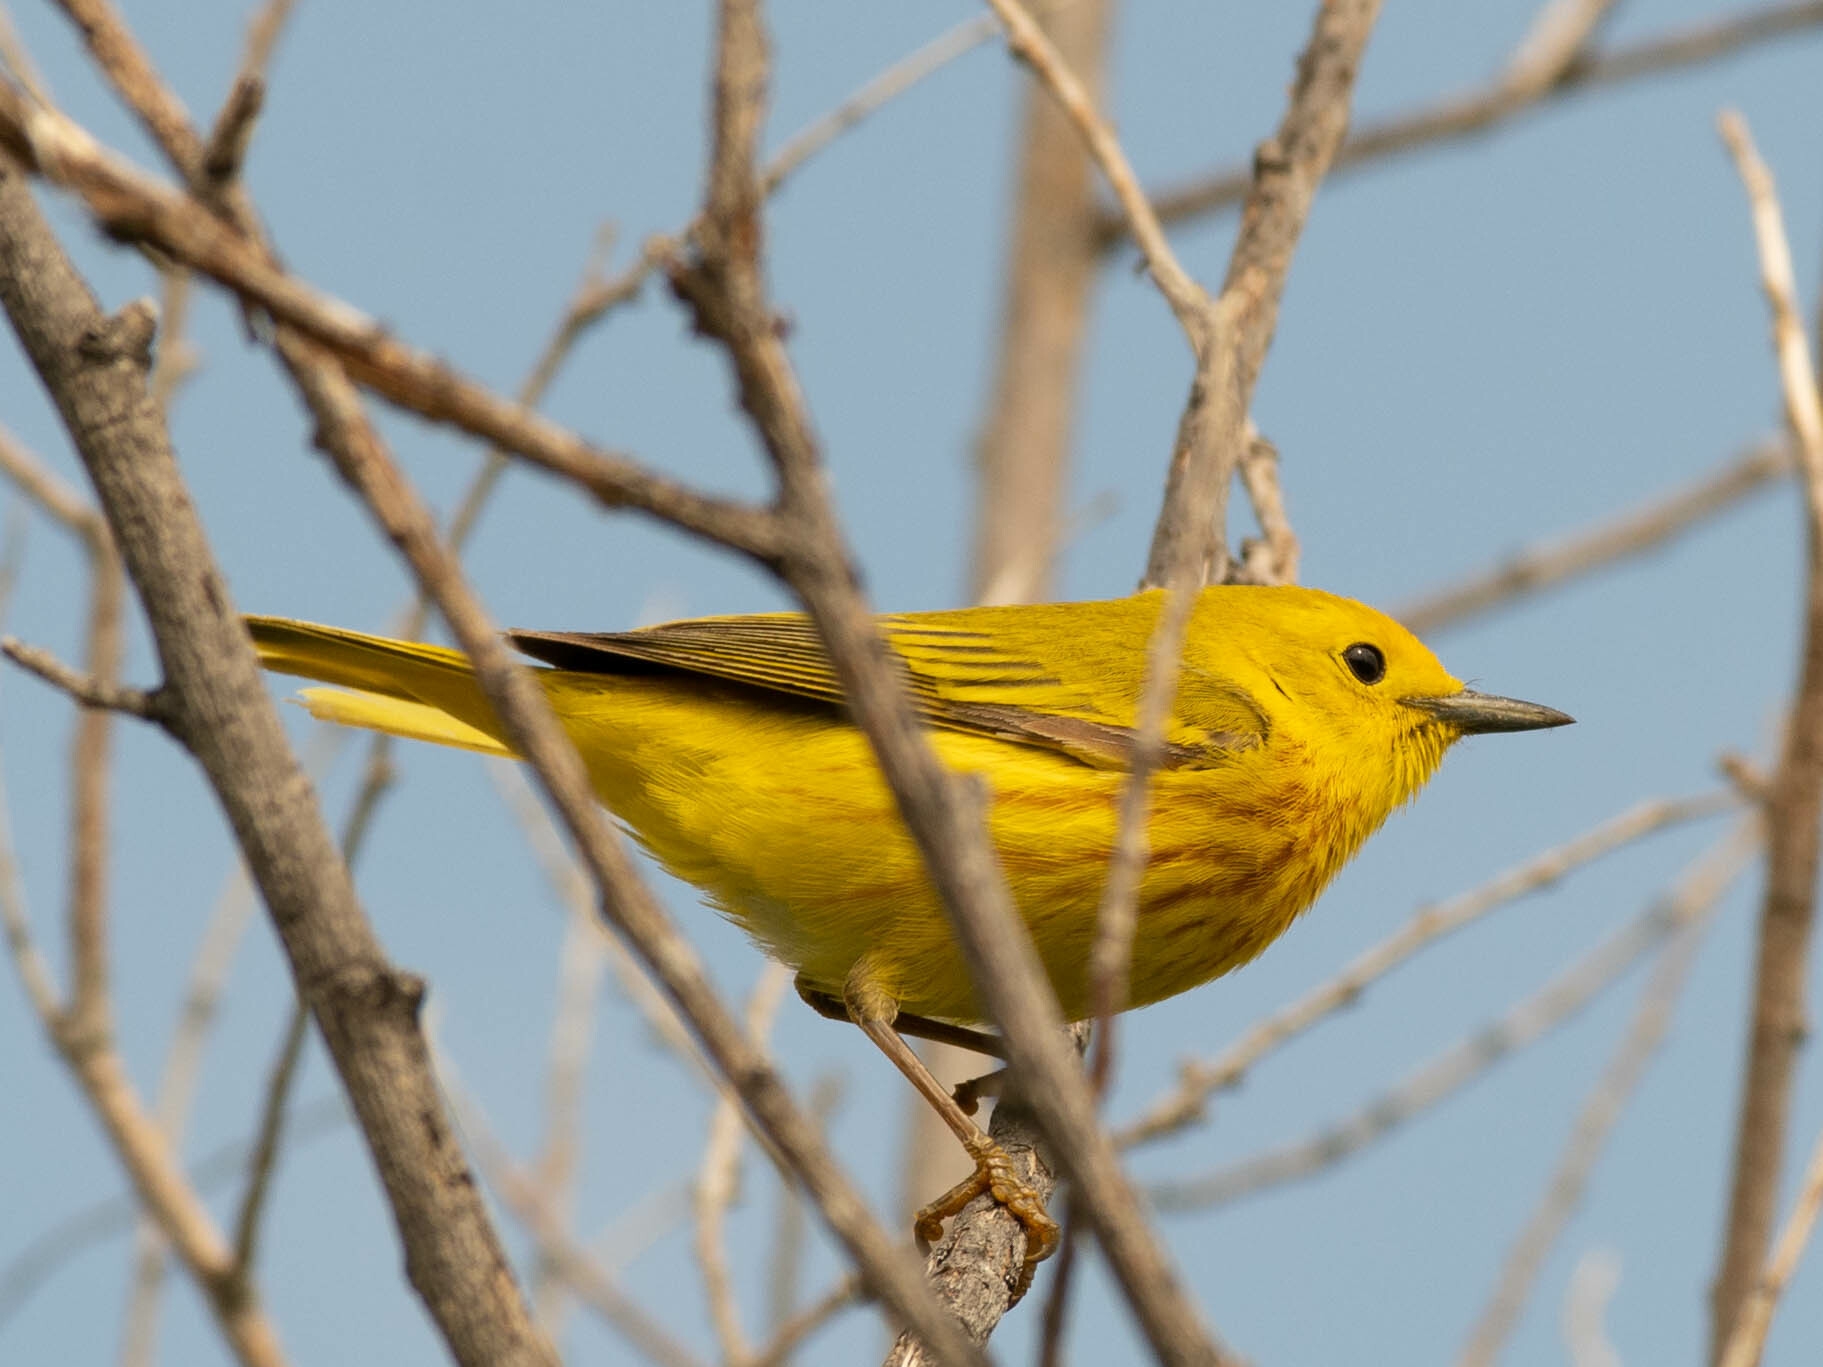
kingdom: Animalia
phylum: Chordata
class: Aves
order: Passeriformes
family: Parulidae
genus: Setophaga
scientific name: Setophaga petechia
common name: Yellow warbler
